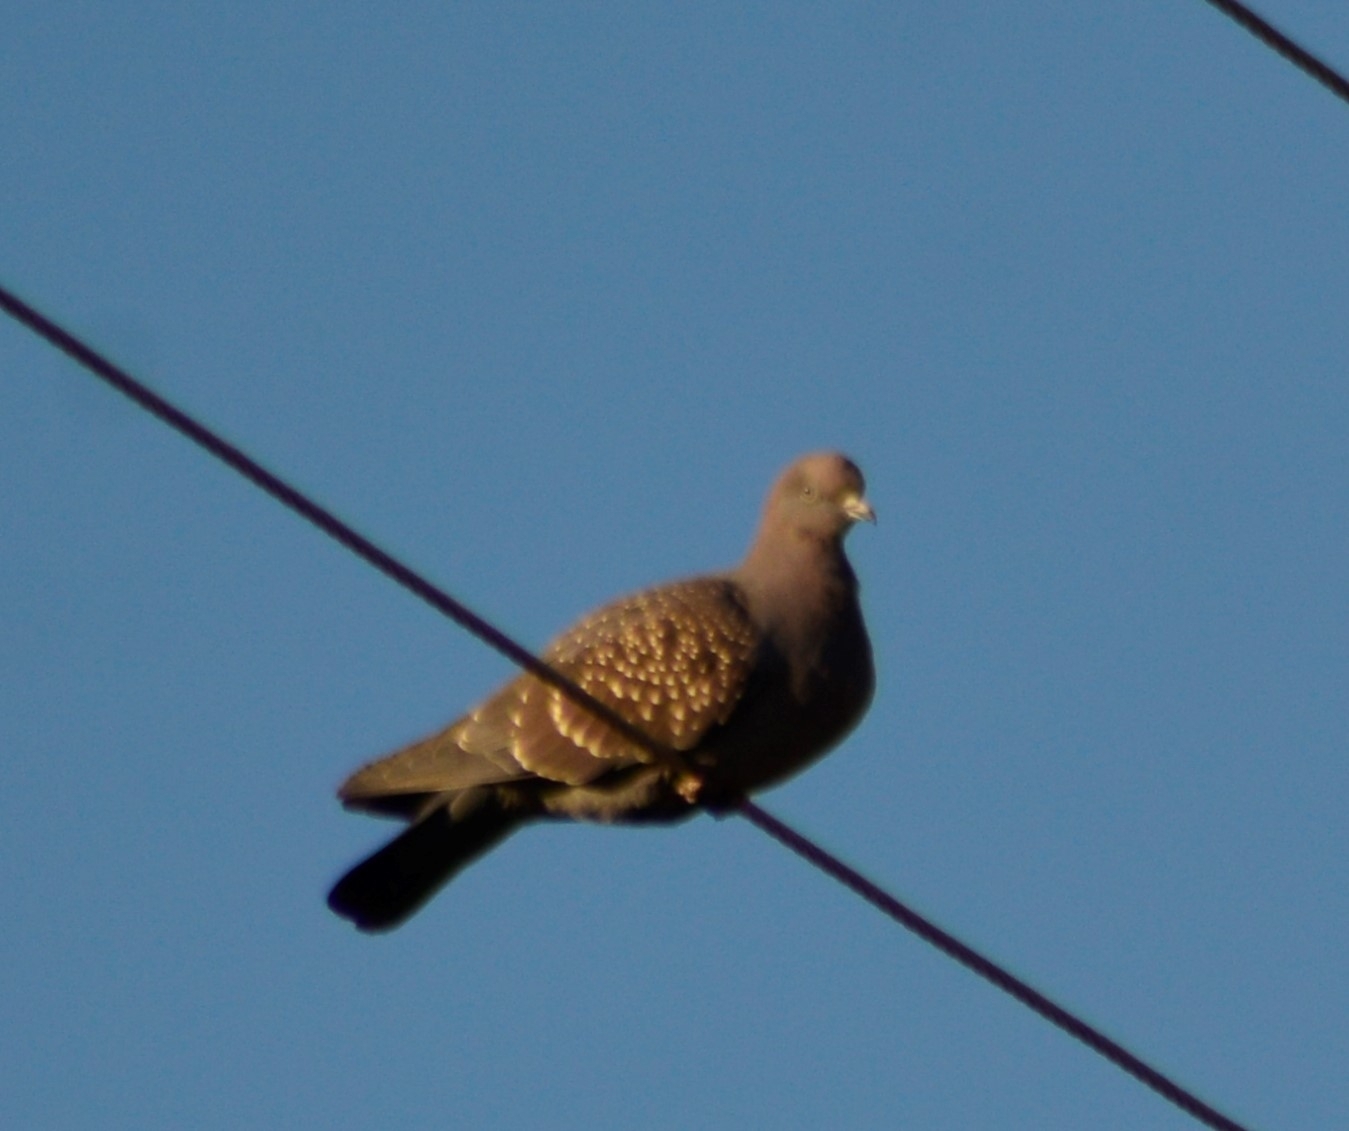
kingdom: Animalia
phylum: Chordata
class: Aves
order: Columbiformes
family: Columbidae
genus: Patagioenas
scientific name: Patagioenas maculosa
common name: Spot-winged pigeon
